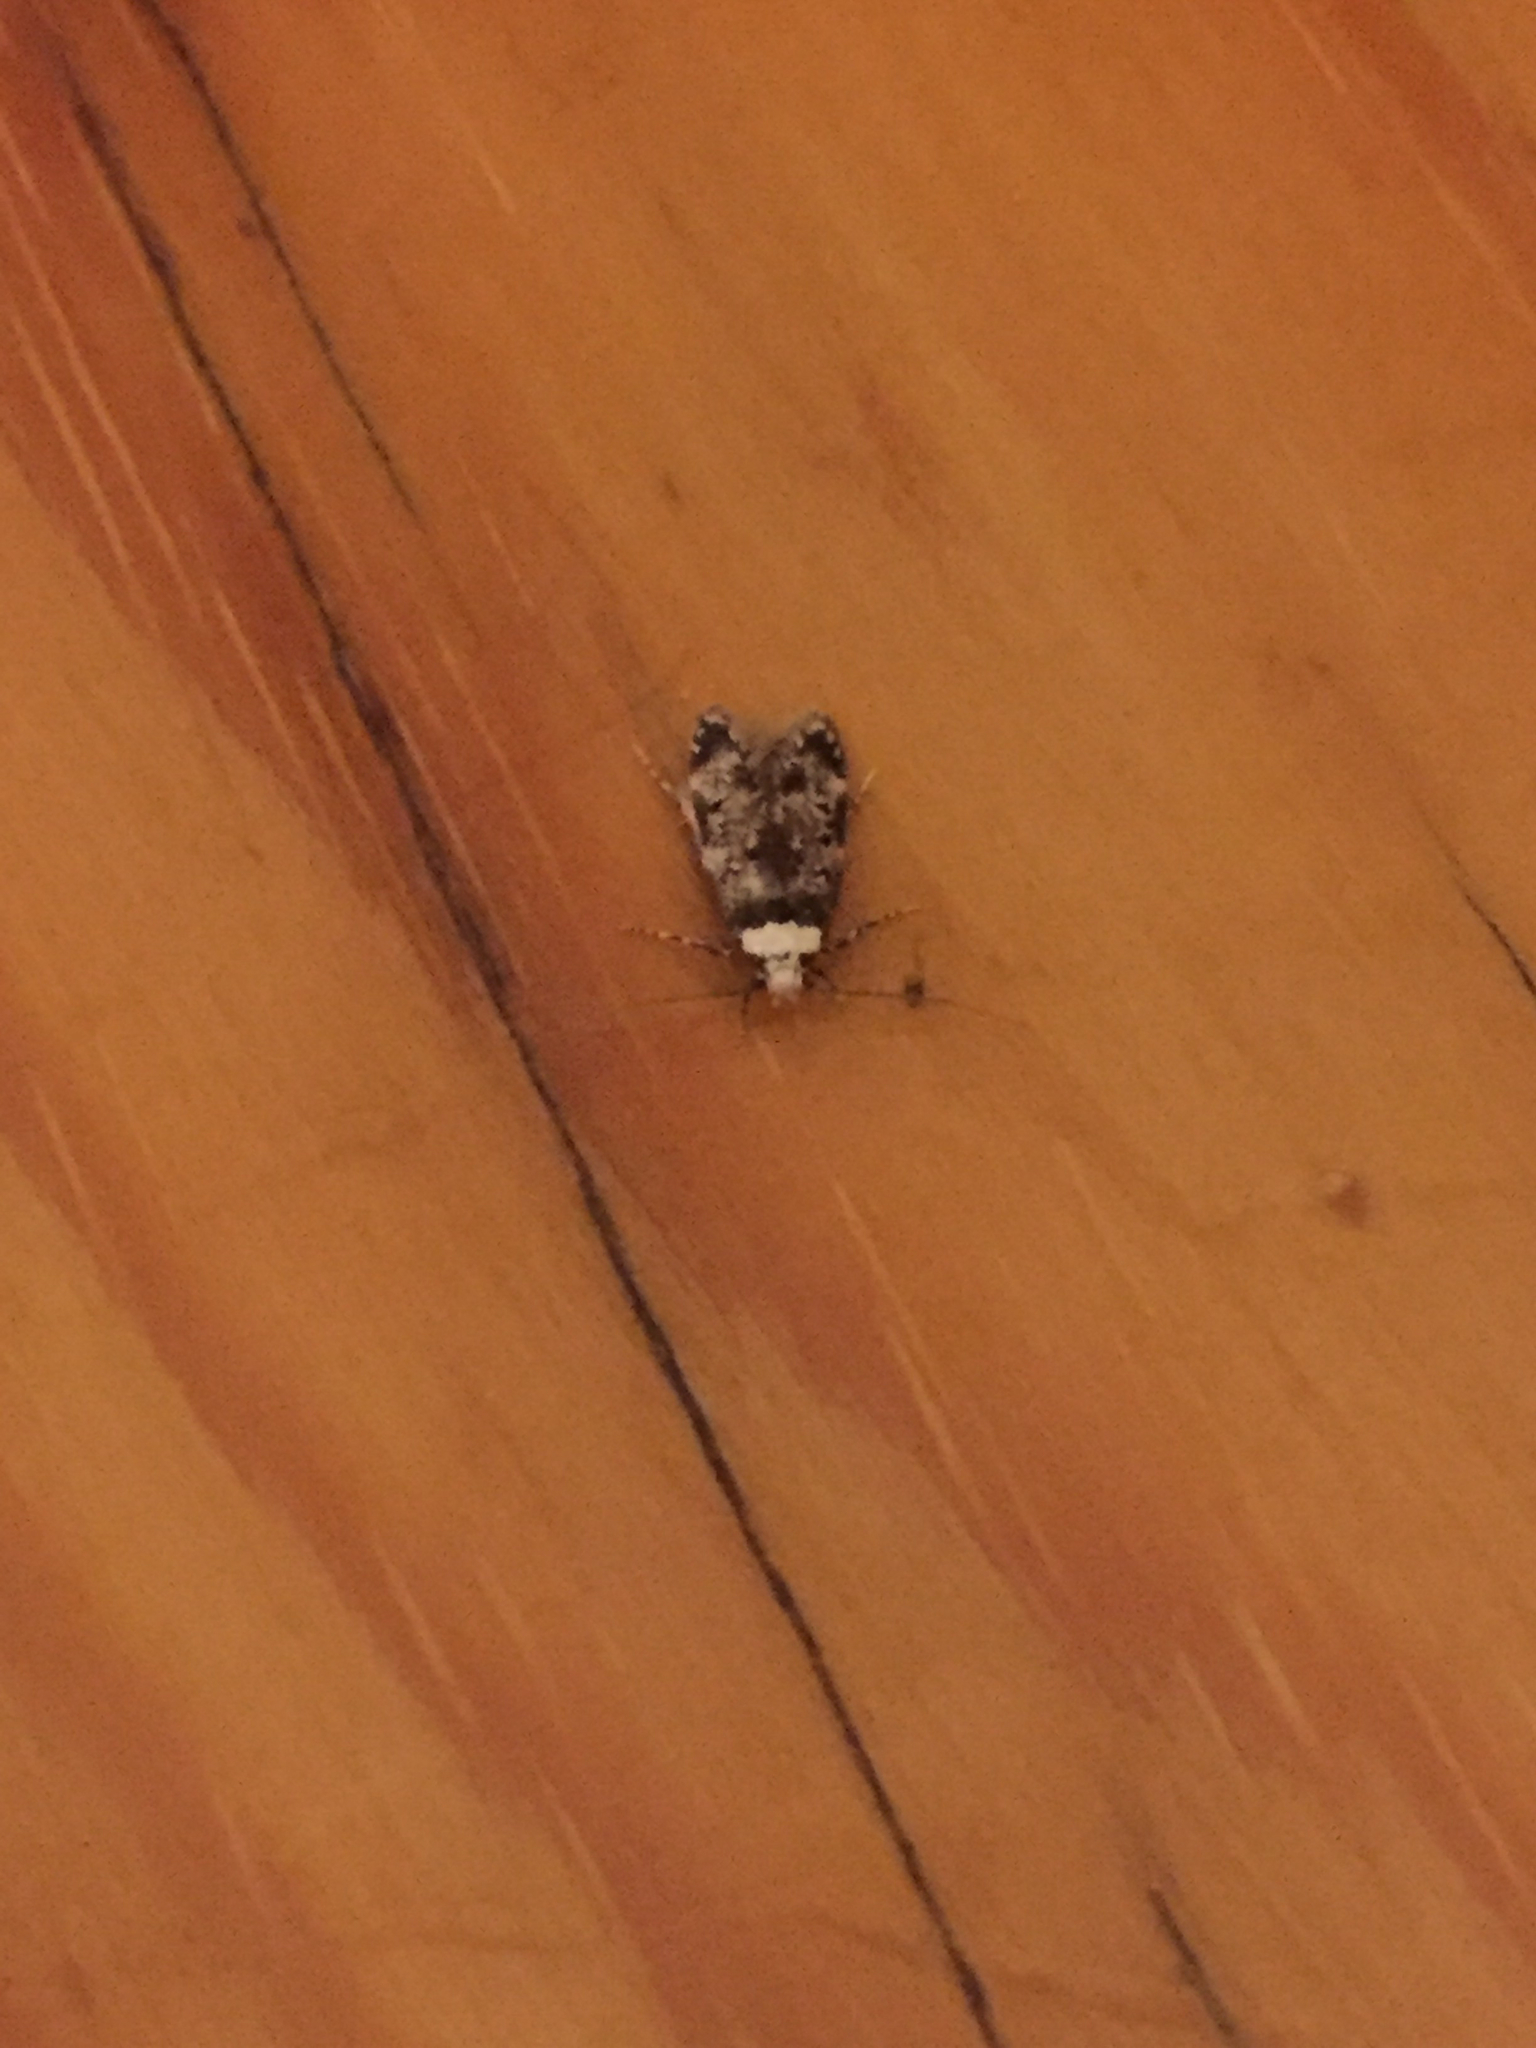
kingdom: Animalia
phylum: Arthropoda
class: Insecta
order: Lepidoptera
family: Oecophoridae
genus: Endrosis
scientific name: Endrosis sarcitrella
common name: White-shouldered house moth
